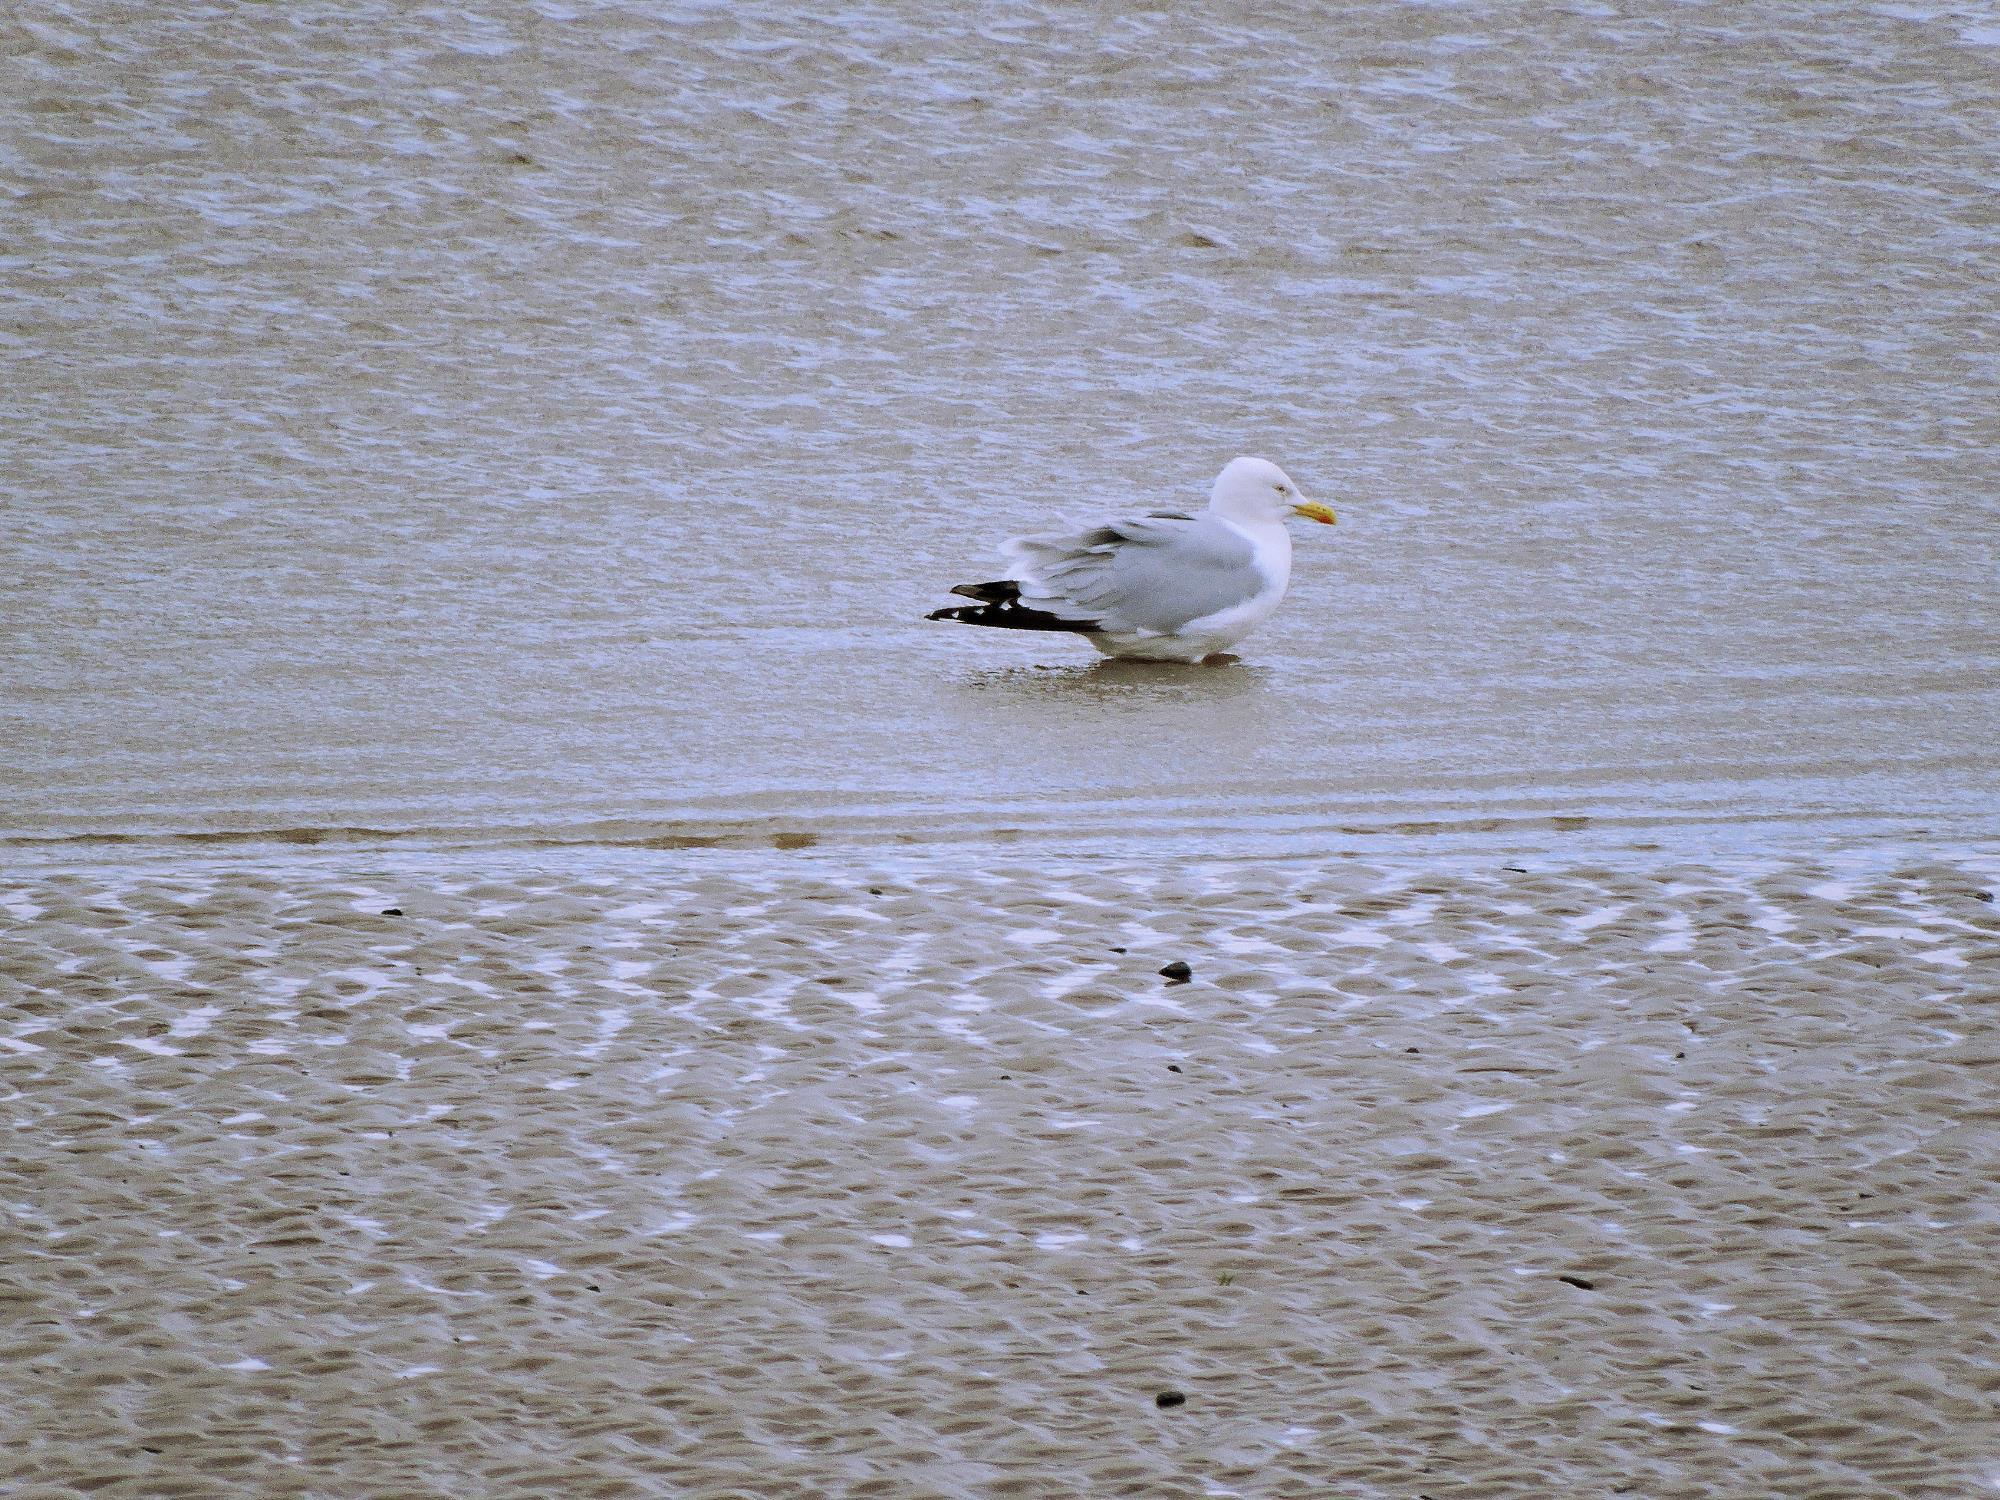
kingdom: Animalia
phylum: Chordata
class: Aves
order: Charadriiformes
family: Laridae
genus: Larus
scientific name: Larus argentatus
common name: Herring gull
